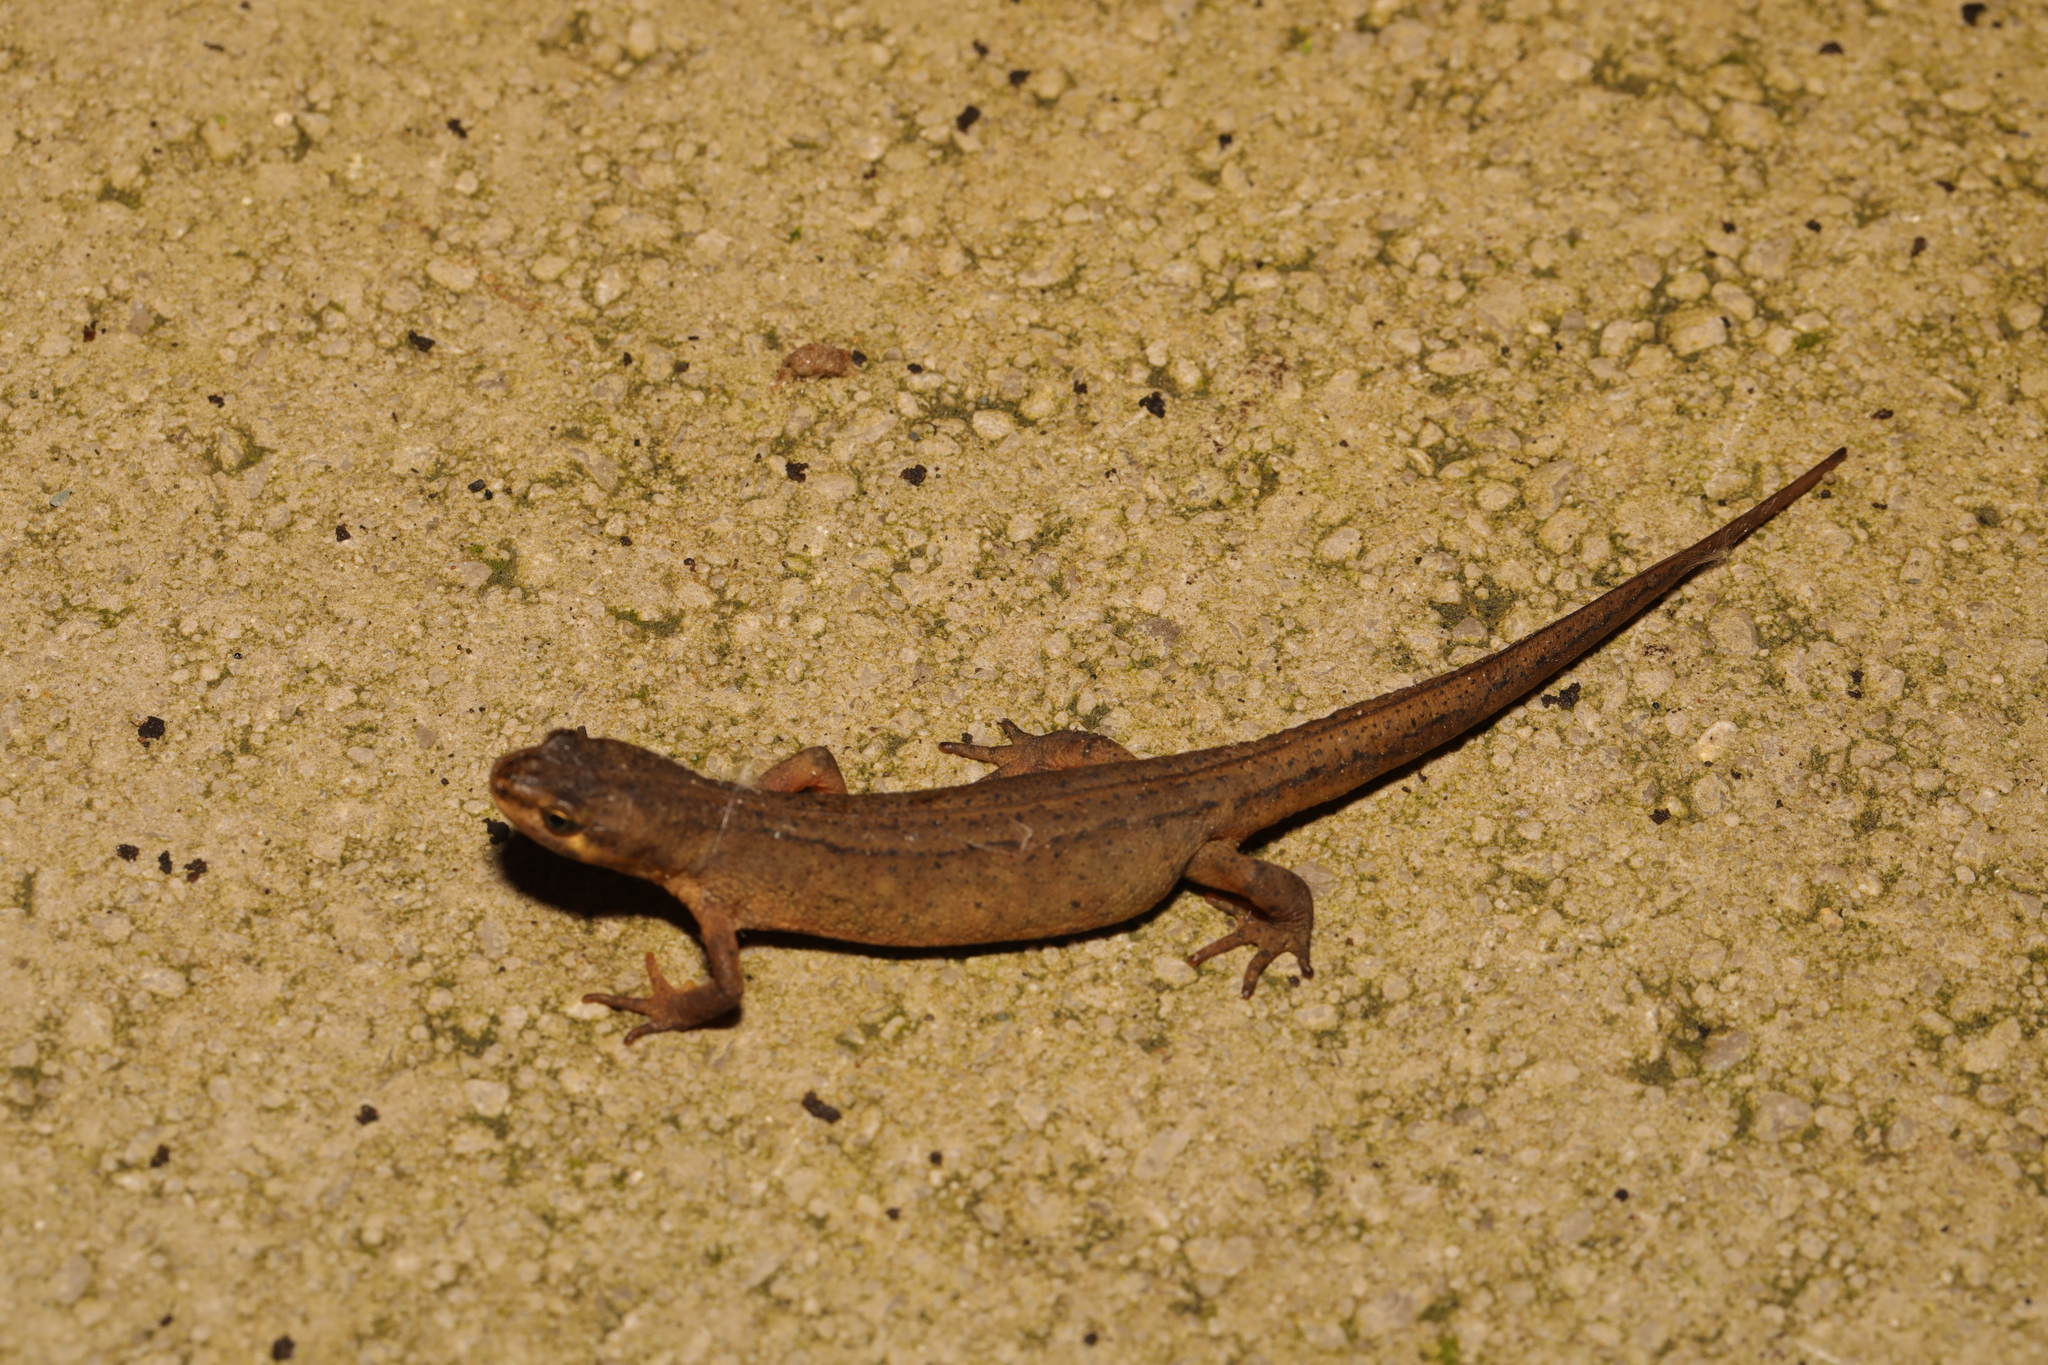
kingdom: Animalia
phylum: Chordata
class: Amphibia
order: Caudata
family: Salamandridae
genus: Lissotriton
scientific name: Lissotriton vulgaris
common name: Smooth newt
